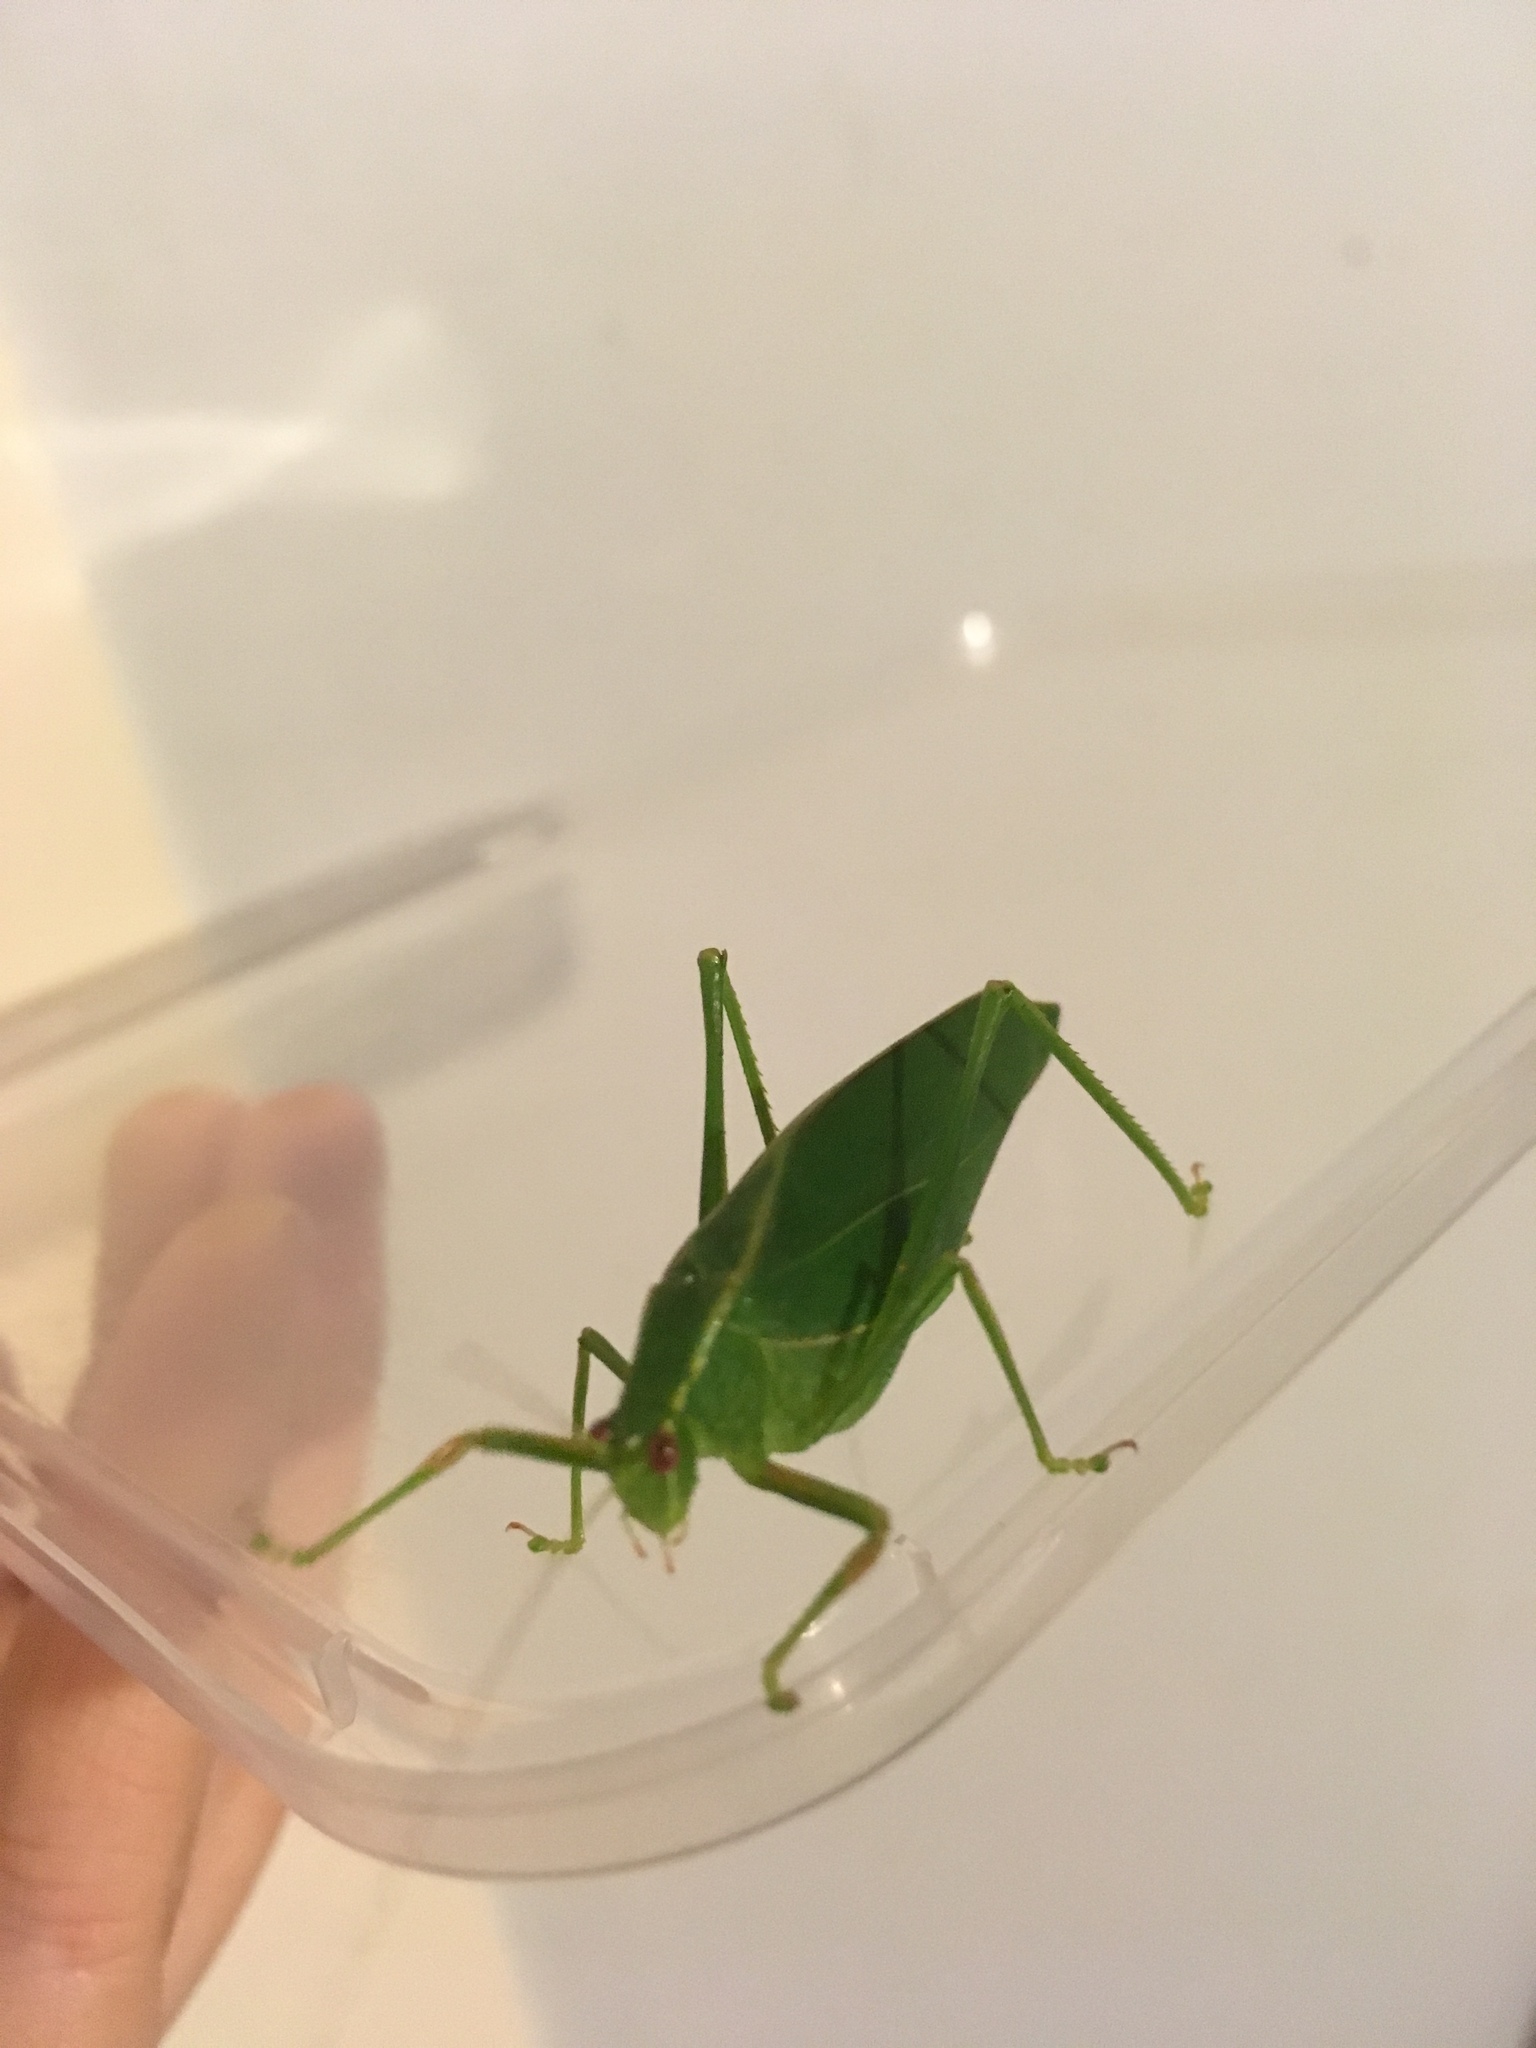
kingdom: Animalia
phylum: Arthropoda
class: Insecta
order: Orthoptera
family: Tettigoniidae
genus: Caedicia
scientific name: Caedicia simplex
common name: Common garden katydid
